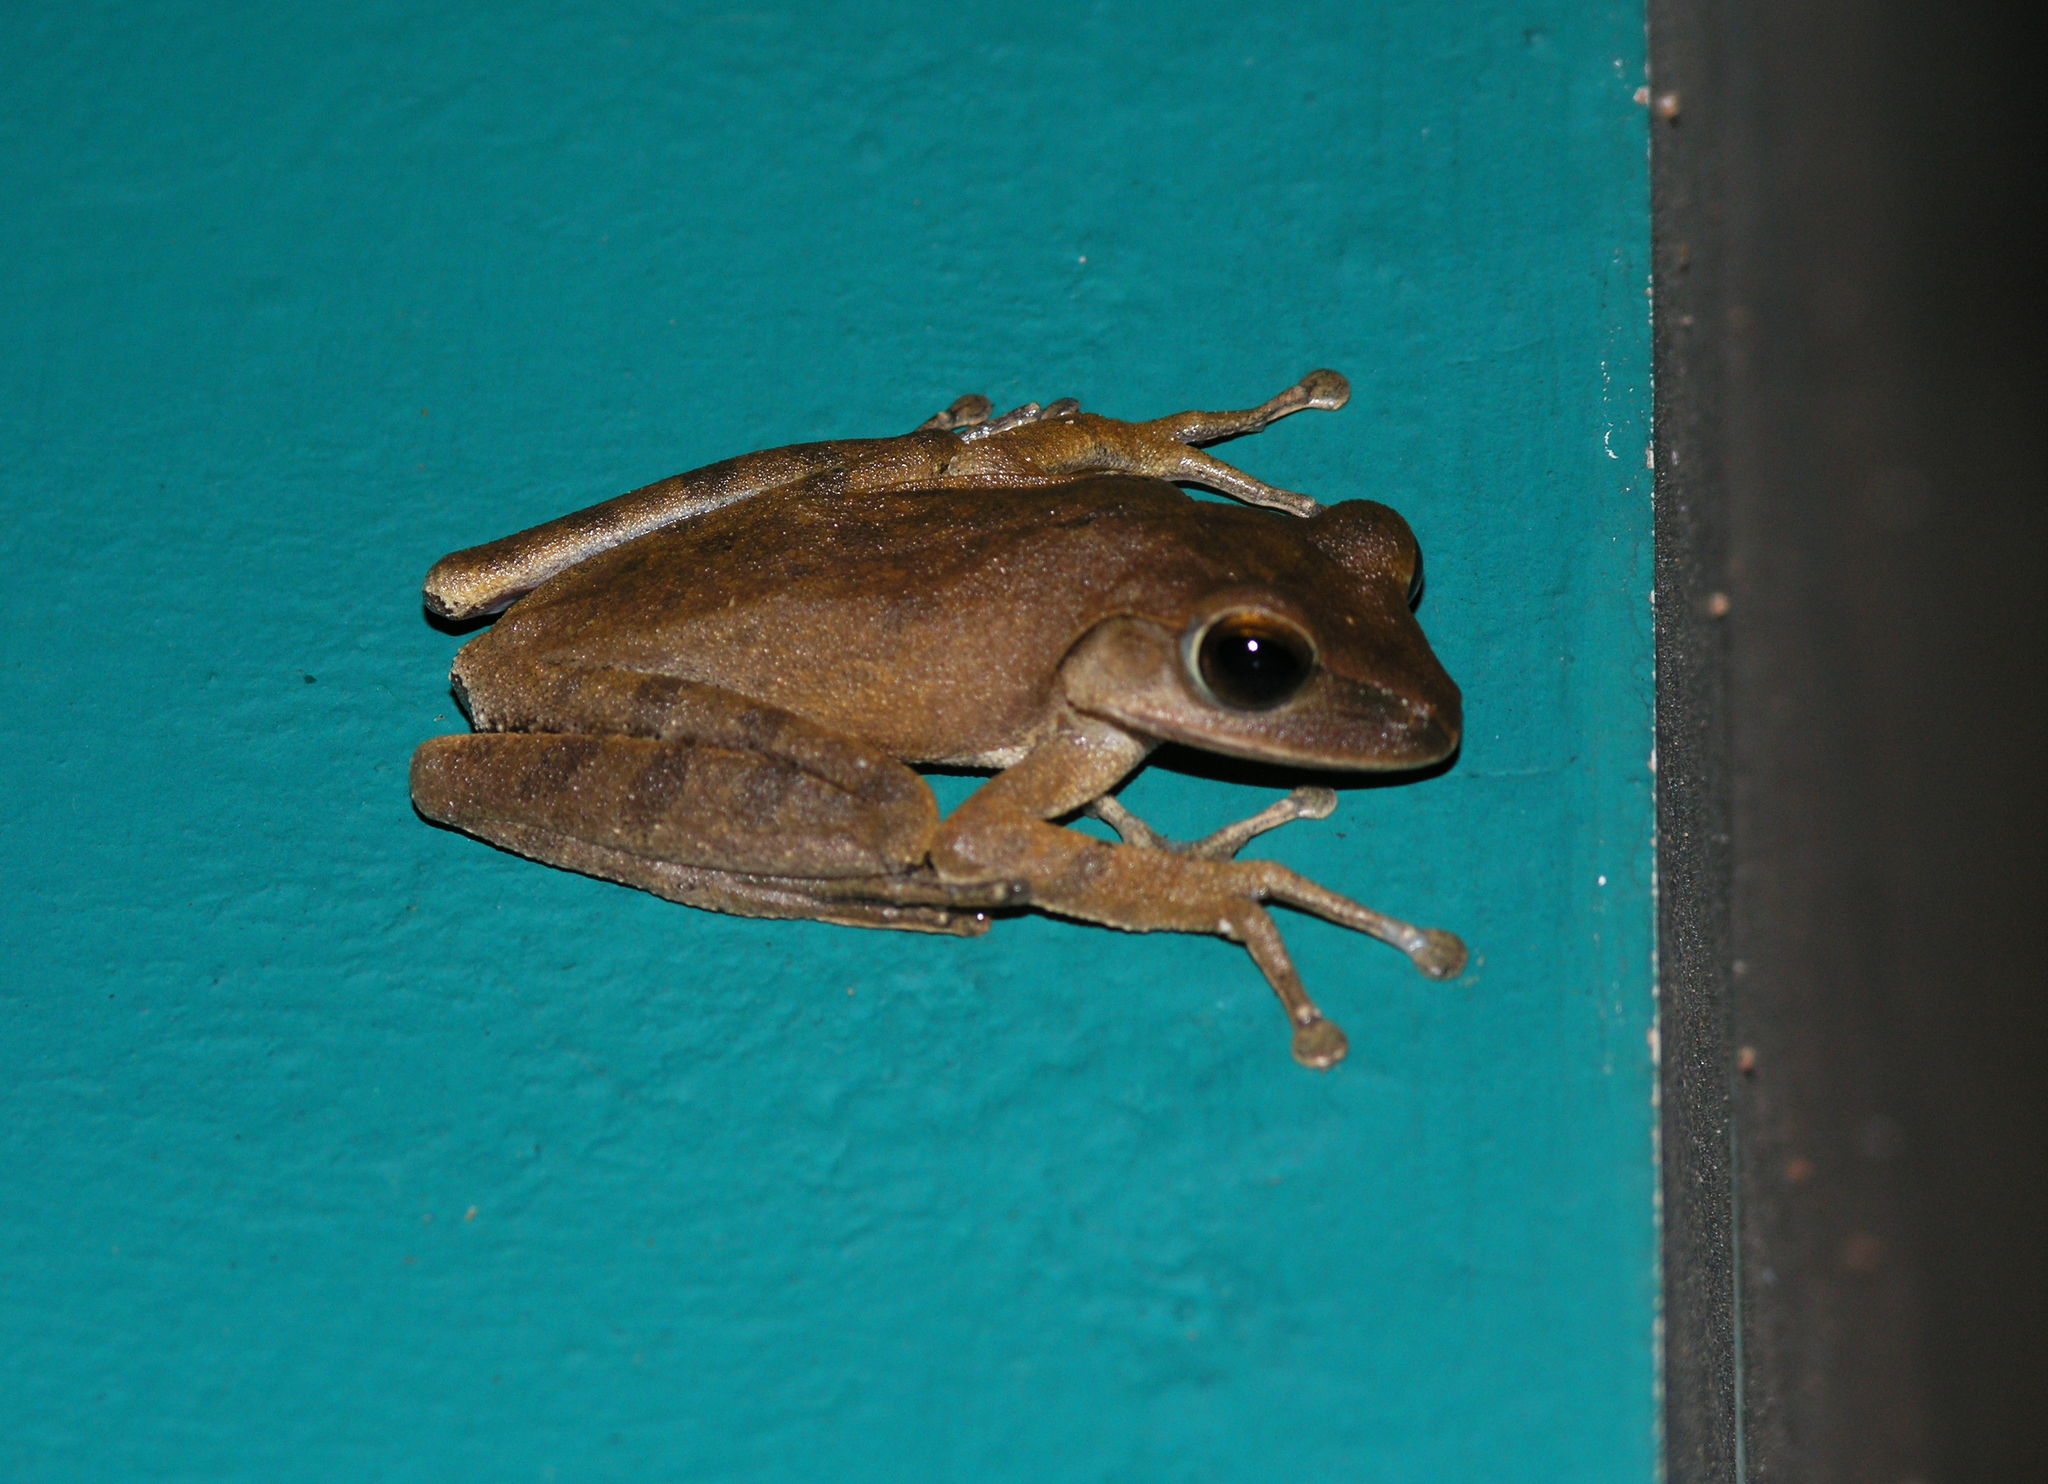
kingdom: Animalia
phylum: Chordata
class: Amphibia
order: Anura
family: Rhacophoridae
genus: Polypedates
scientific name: Polypedates megacephalus
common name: Hong kong whipping frog
